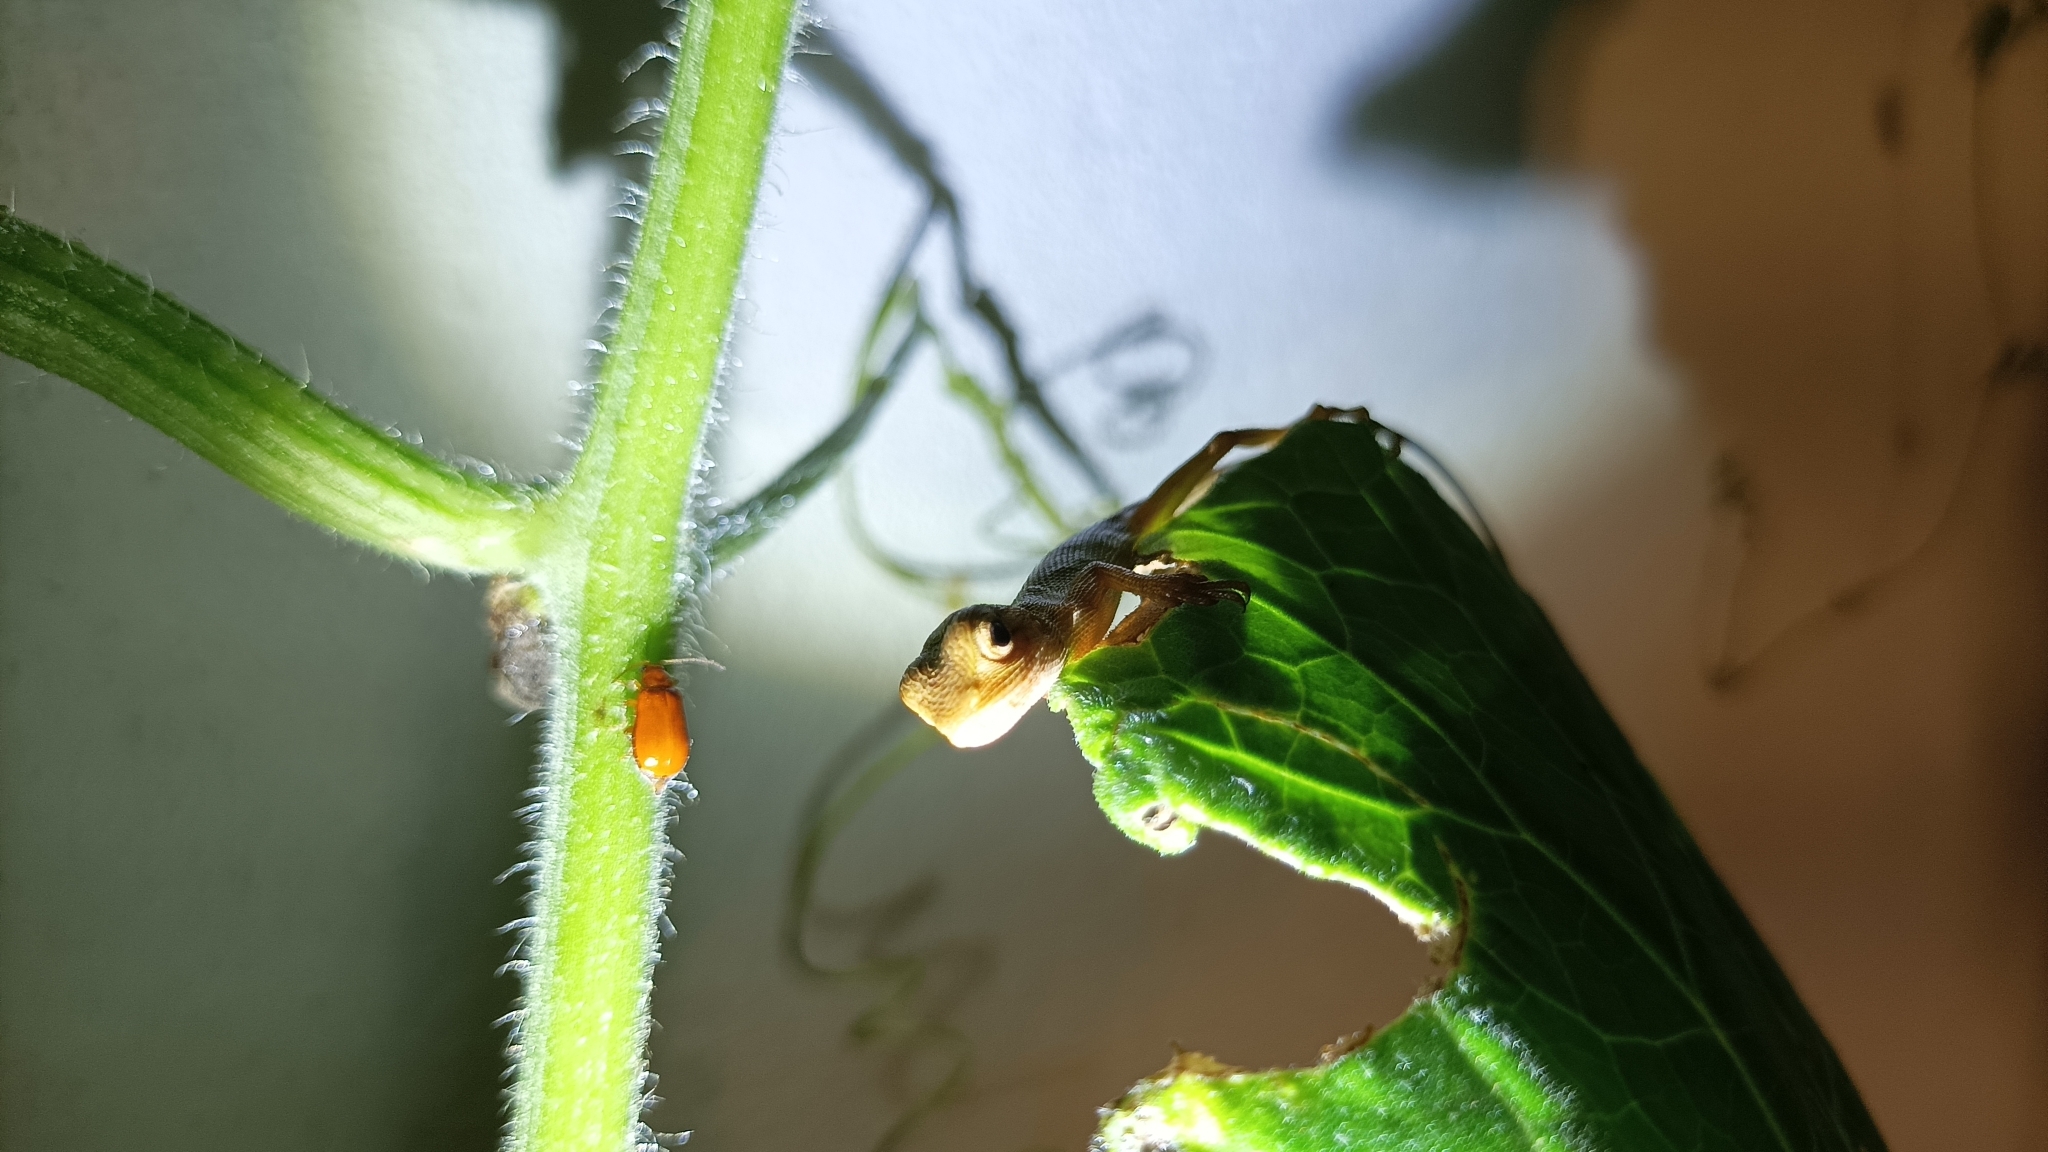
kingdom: Animalia
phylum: Chordata
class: Squamata
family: Agamidae
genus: Calotes
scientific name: Calotes versicolor
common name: Oriental garden lizard
